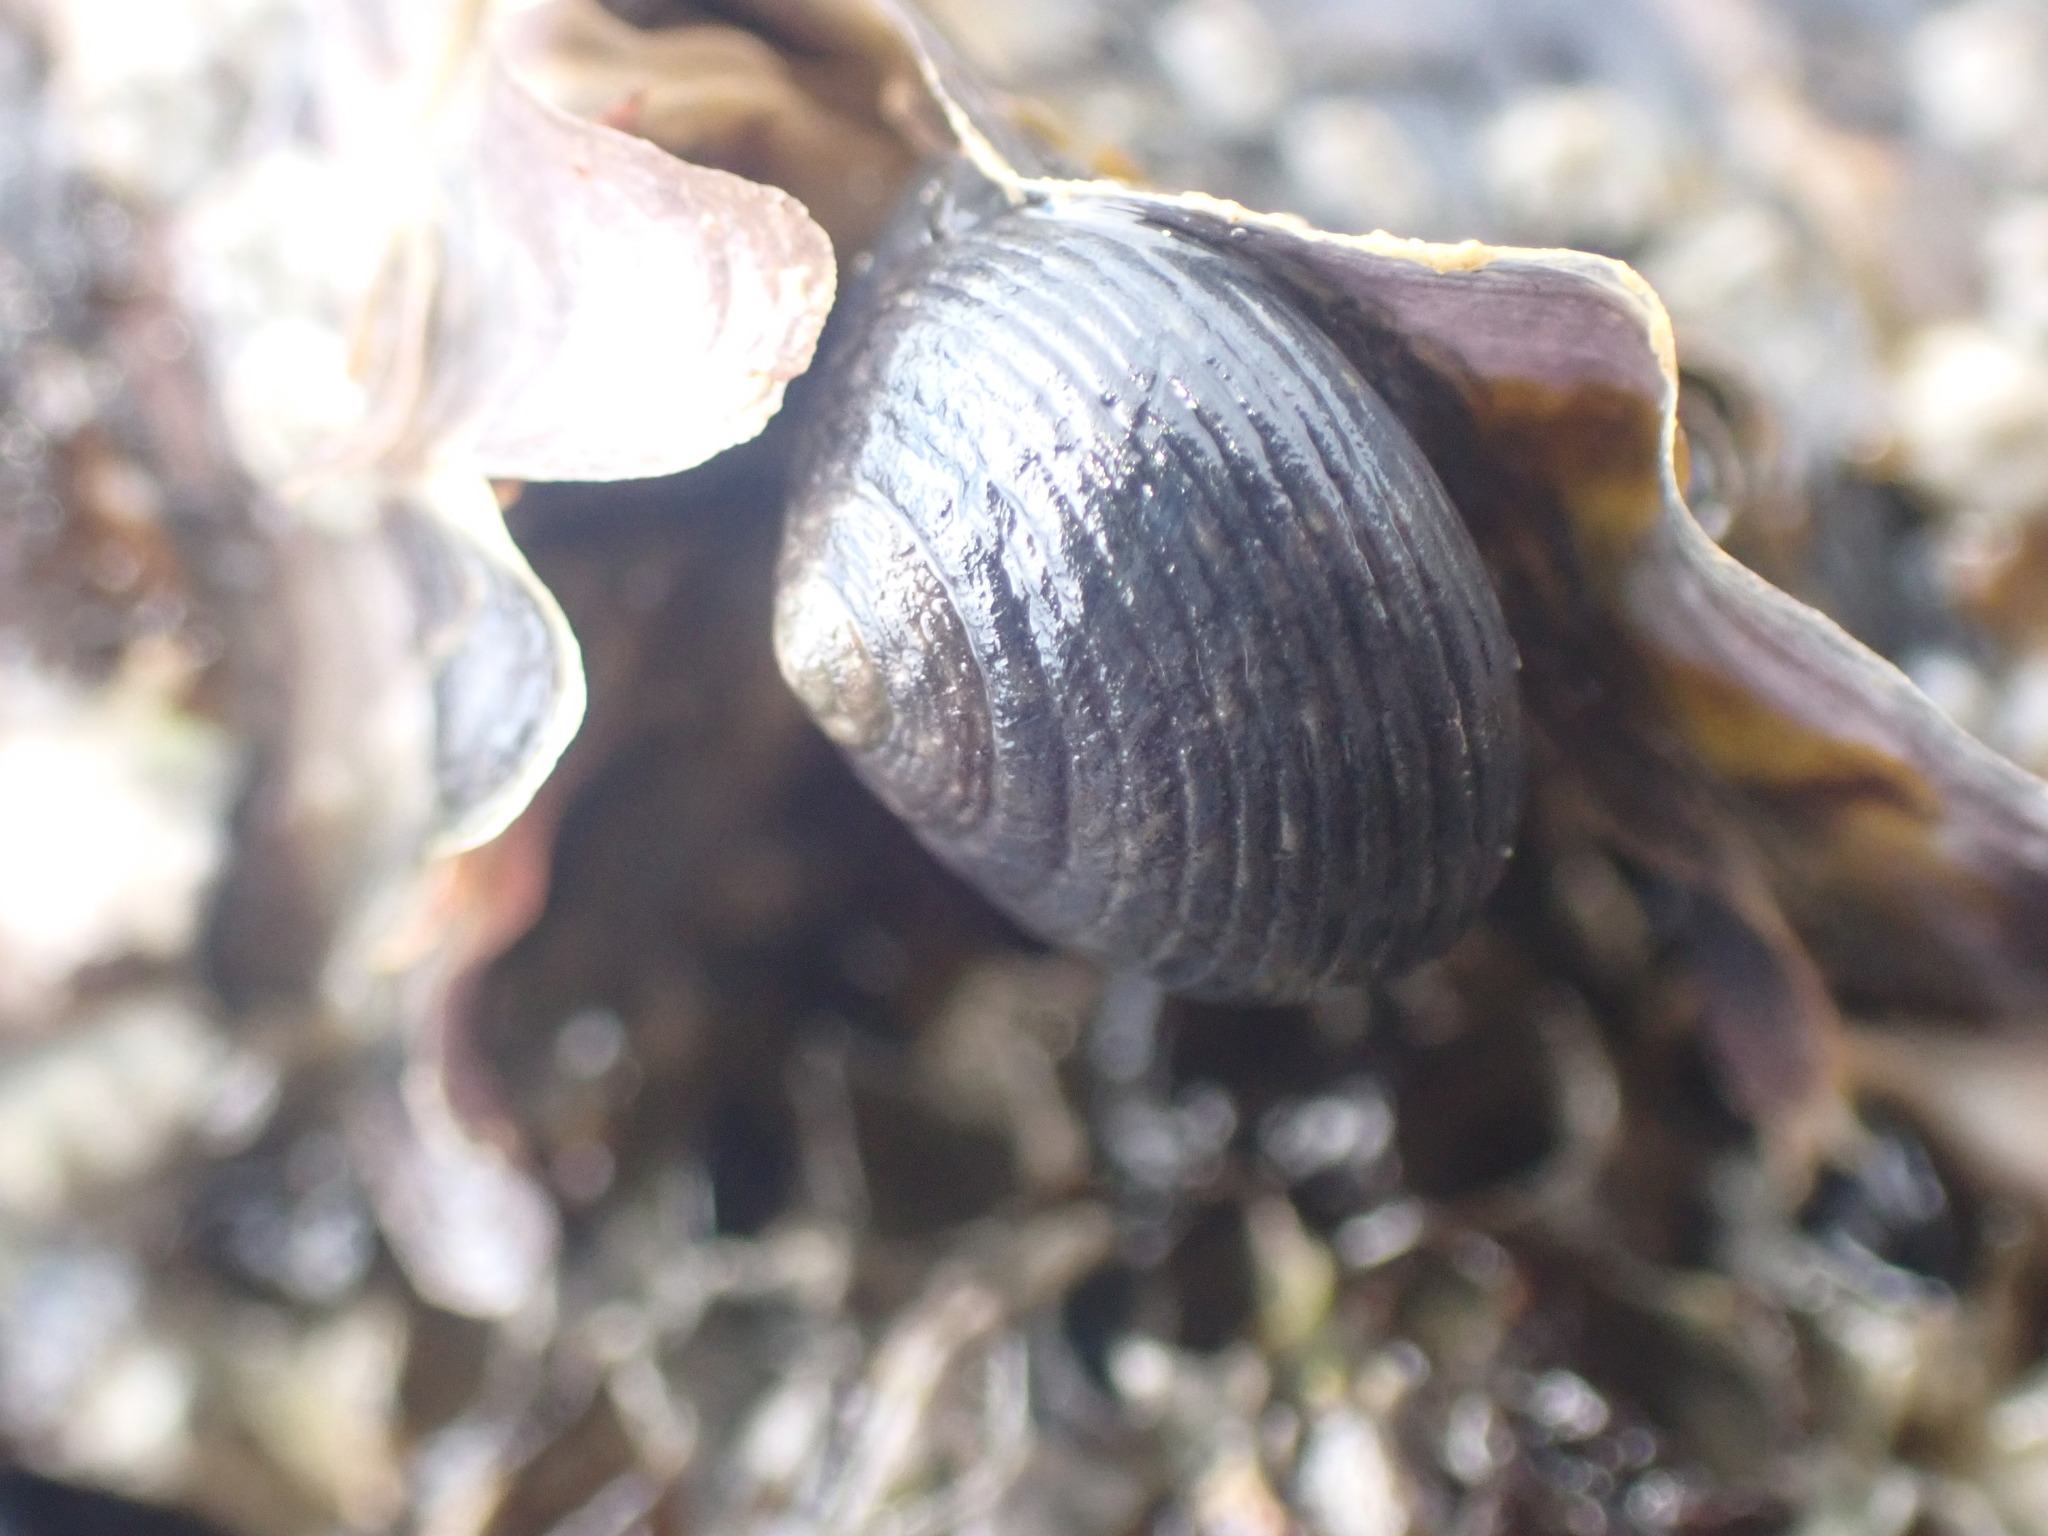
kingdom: Animalia
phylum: Mollusca
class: Gastropoda
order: Trochida
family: Trochidae
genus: Diloma
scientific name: Diloma zelandicum
